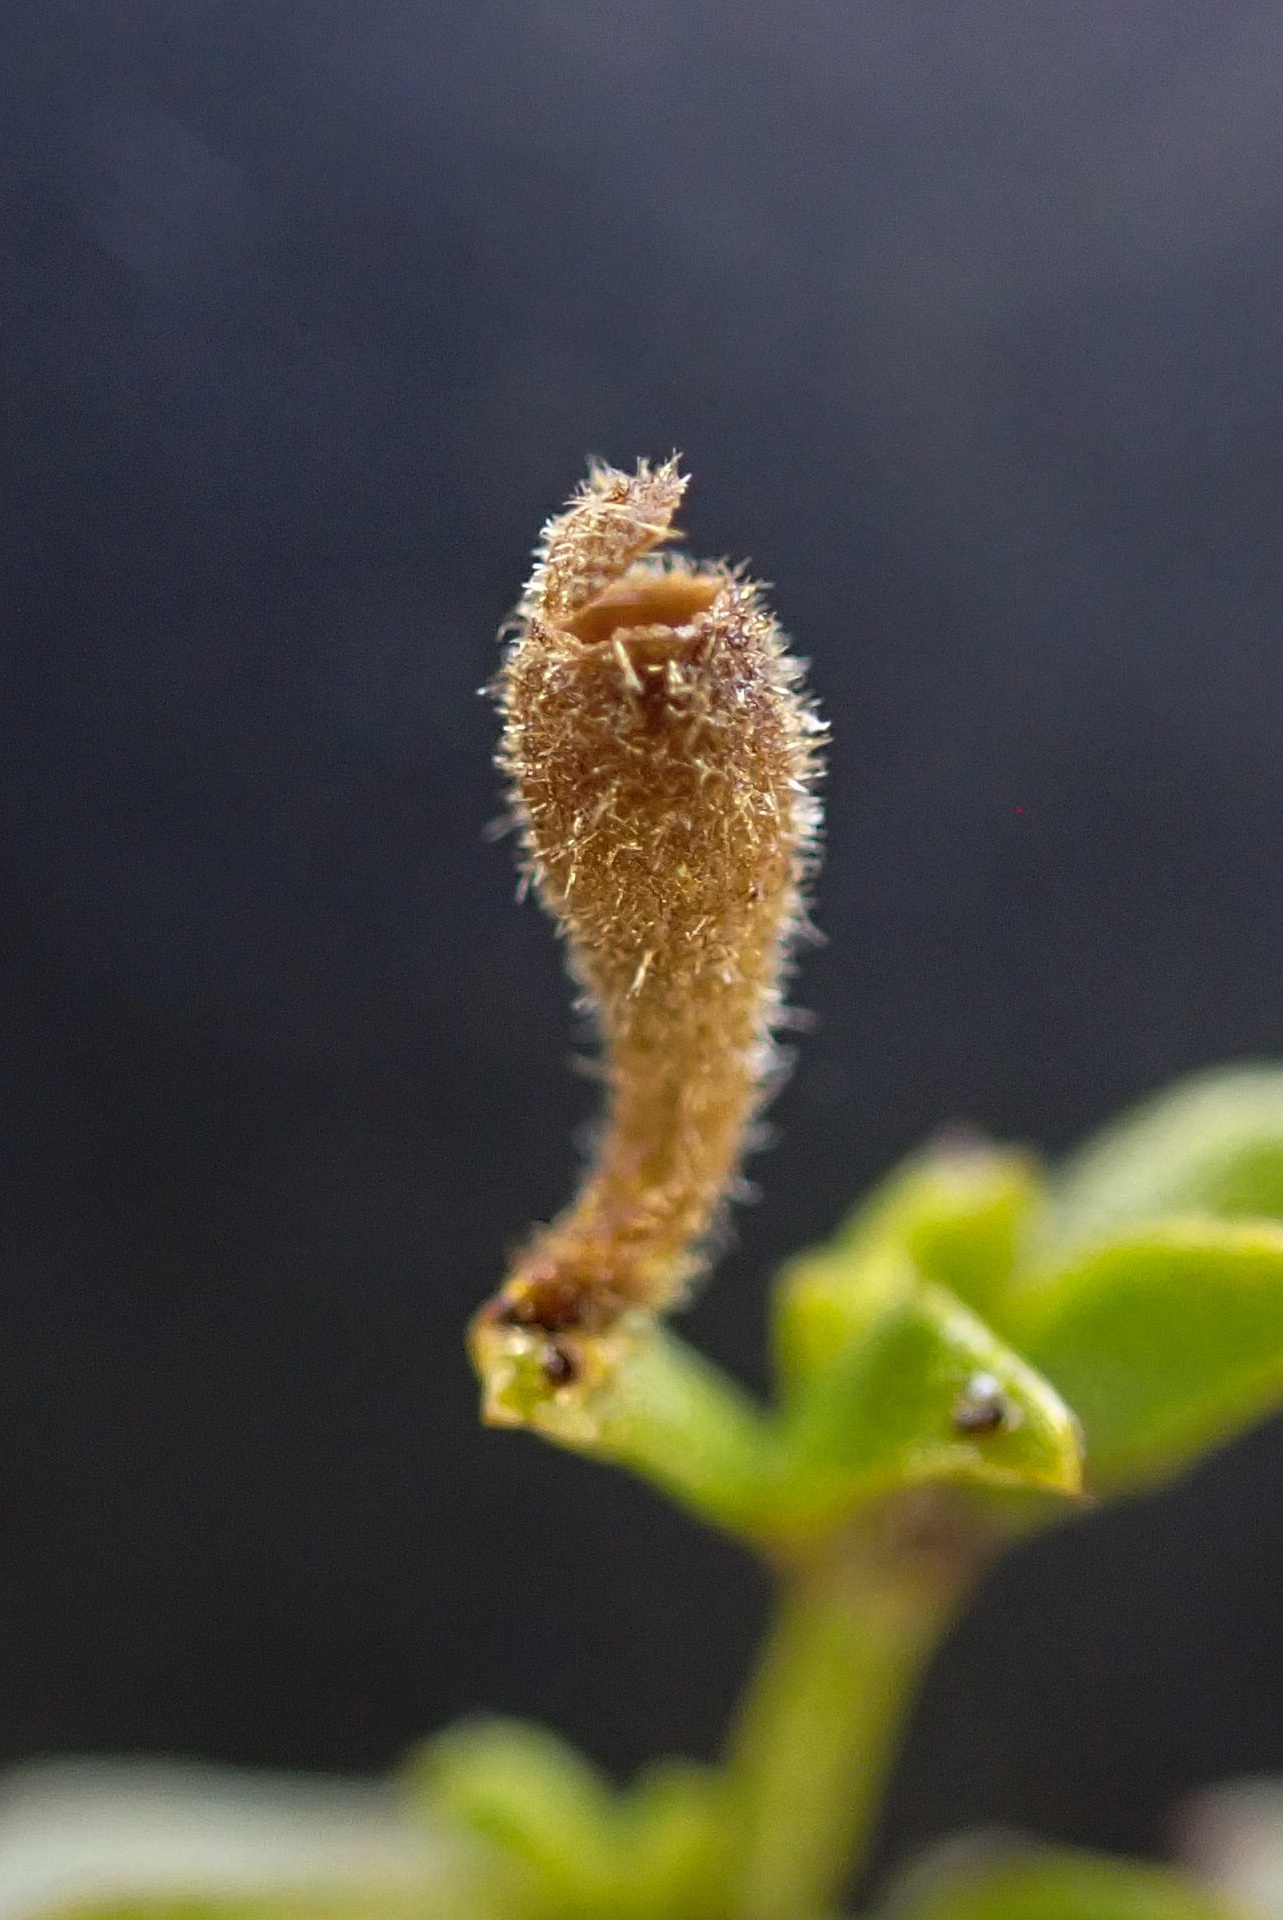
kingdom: Animalia
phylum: Arthropoda
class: Insecta
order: Diptera
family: Cecidomyiidae
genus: Asphondylia
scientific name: Asphondylia pilosa
